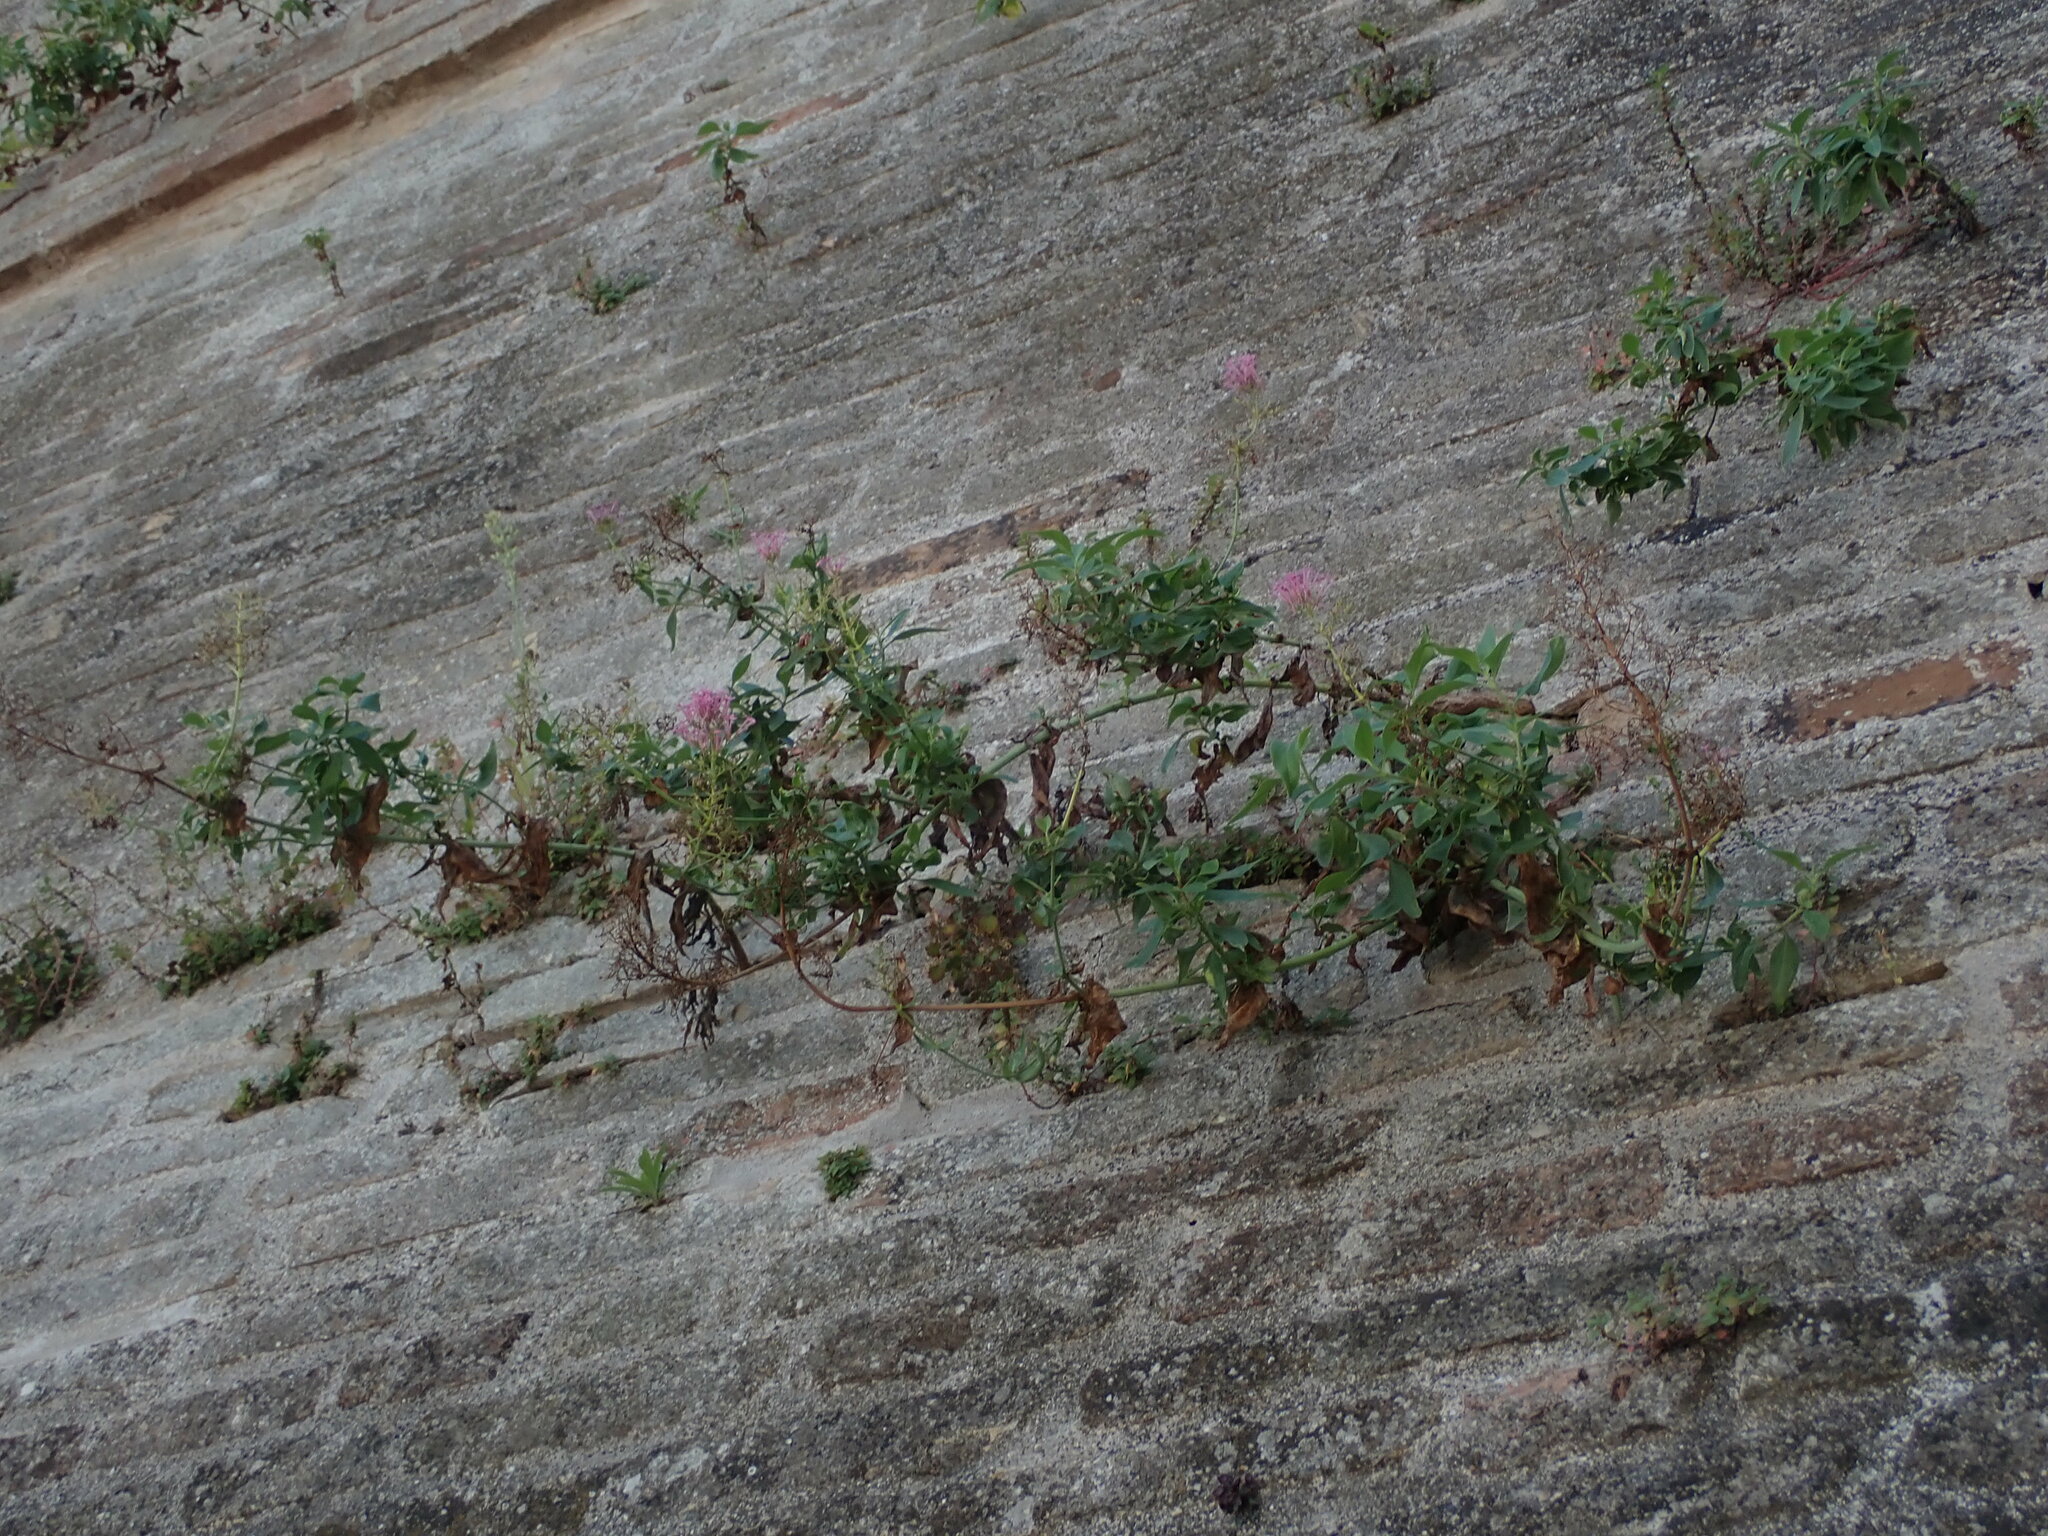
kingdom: Plantae
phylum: Tracheophyta
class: Magnoliopsida
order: Dipsacales
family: Caprifoliaceae
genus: Centranthus
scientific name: Centranthus ruber
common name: Red valerian
